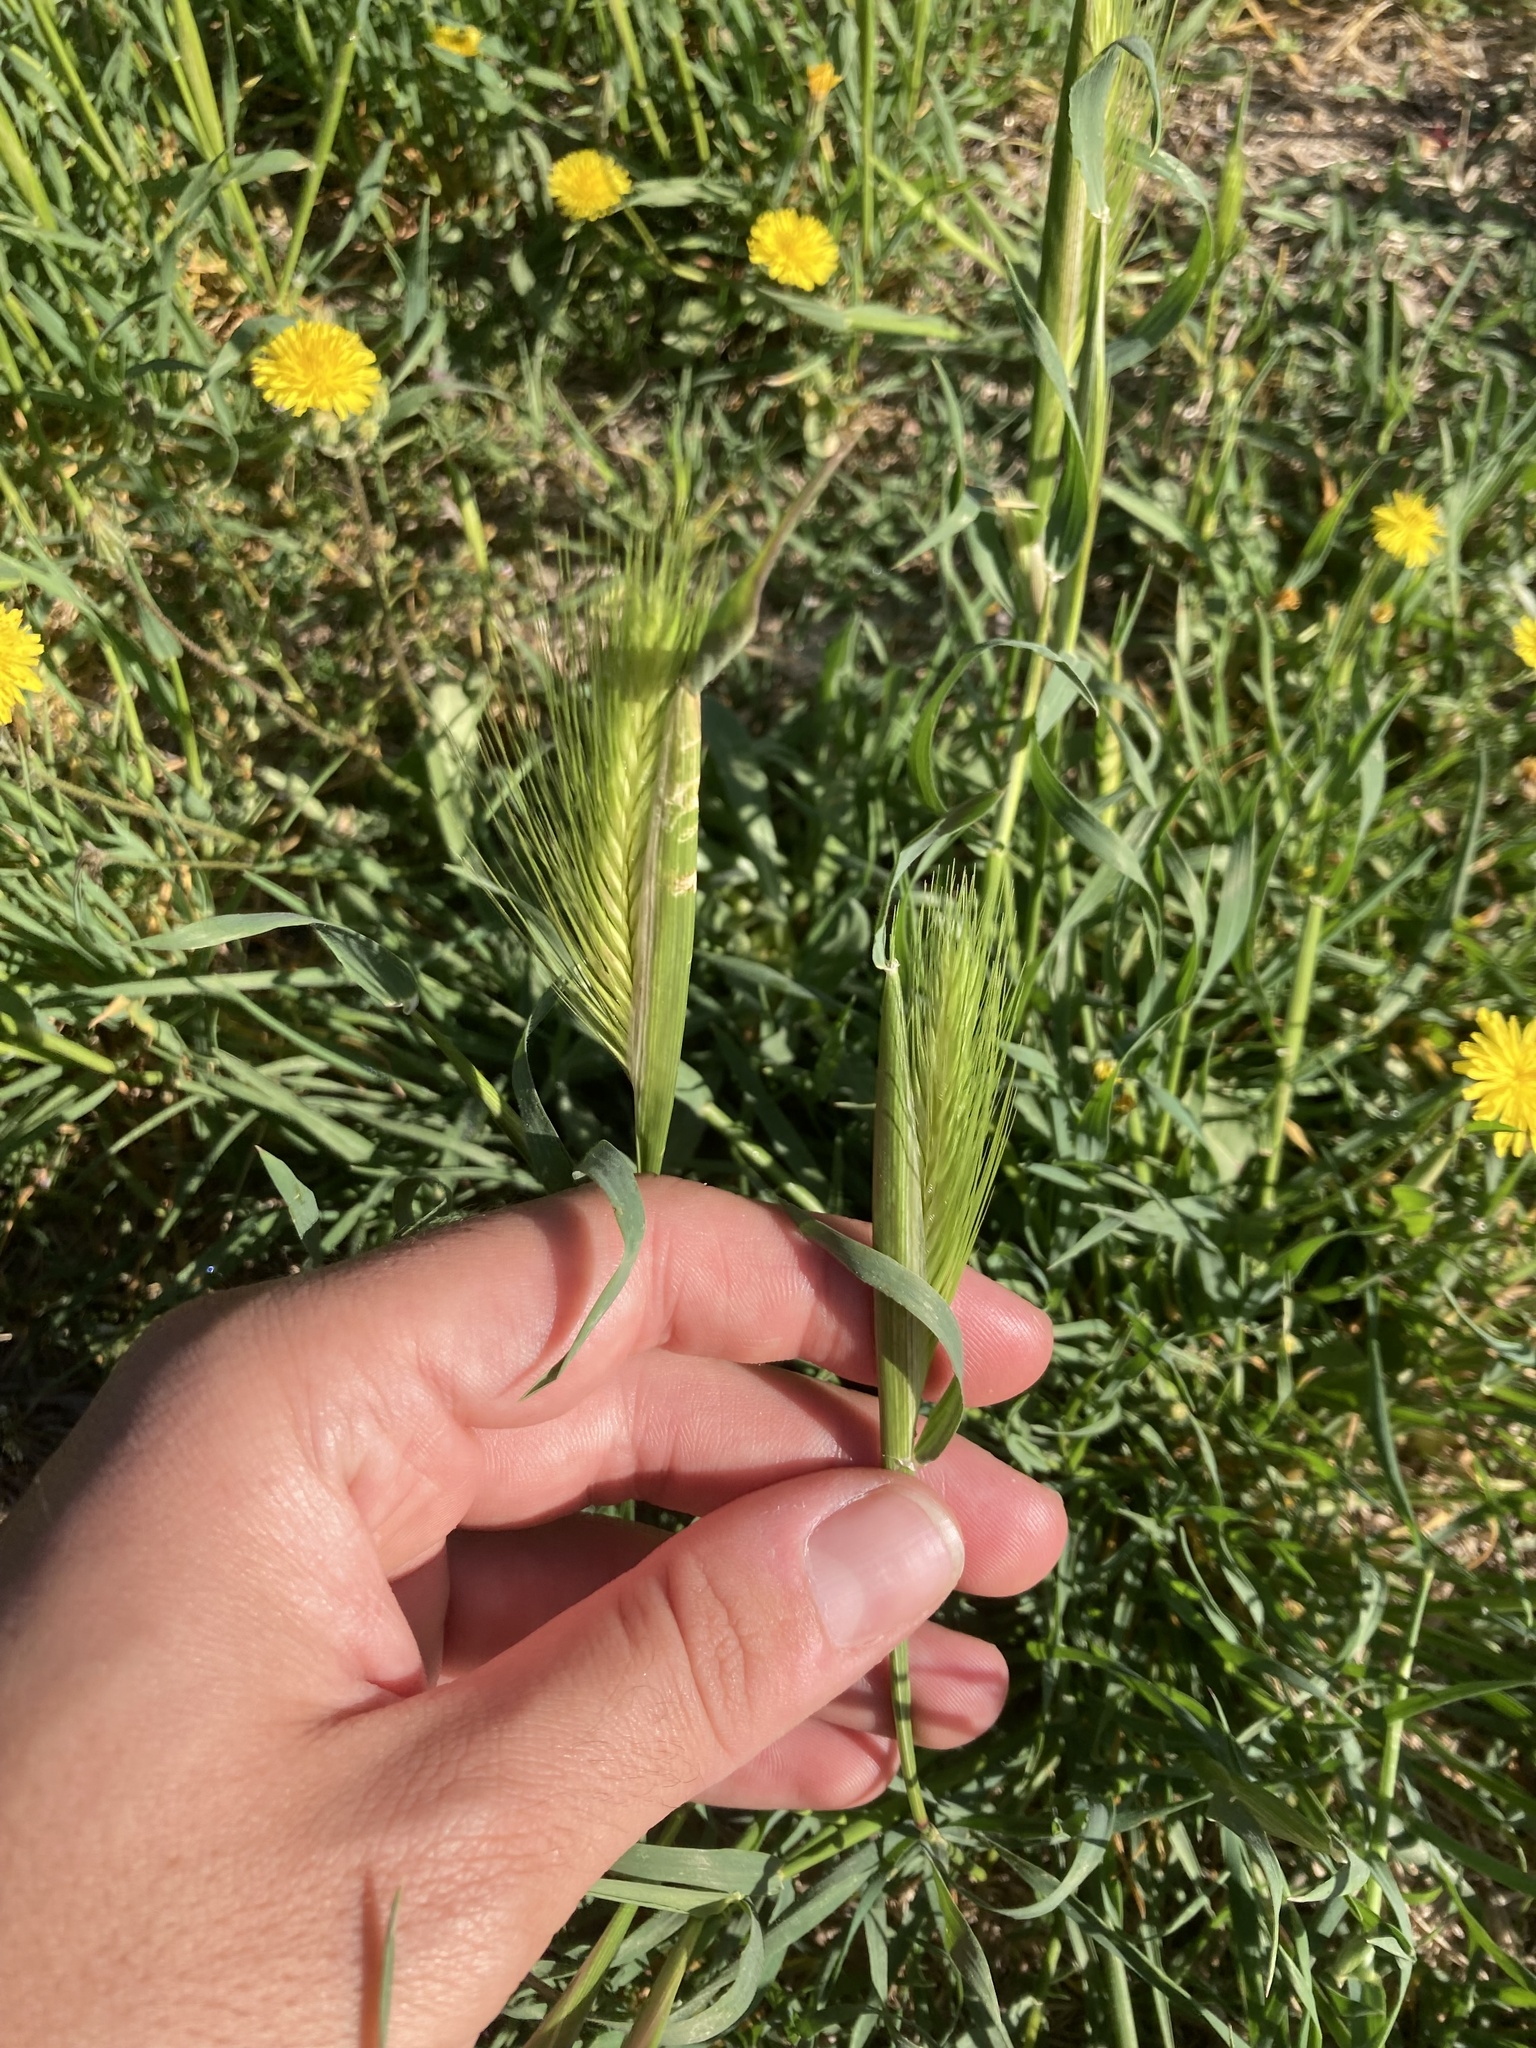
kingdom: Plantae
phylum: Tracheophyta
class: Liliopsida
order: Poales
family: Poaceae
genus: Hordeum
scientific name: Hordeum murinum
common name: Wall barley
